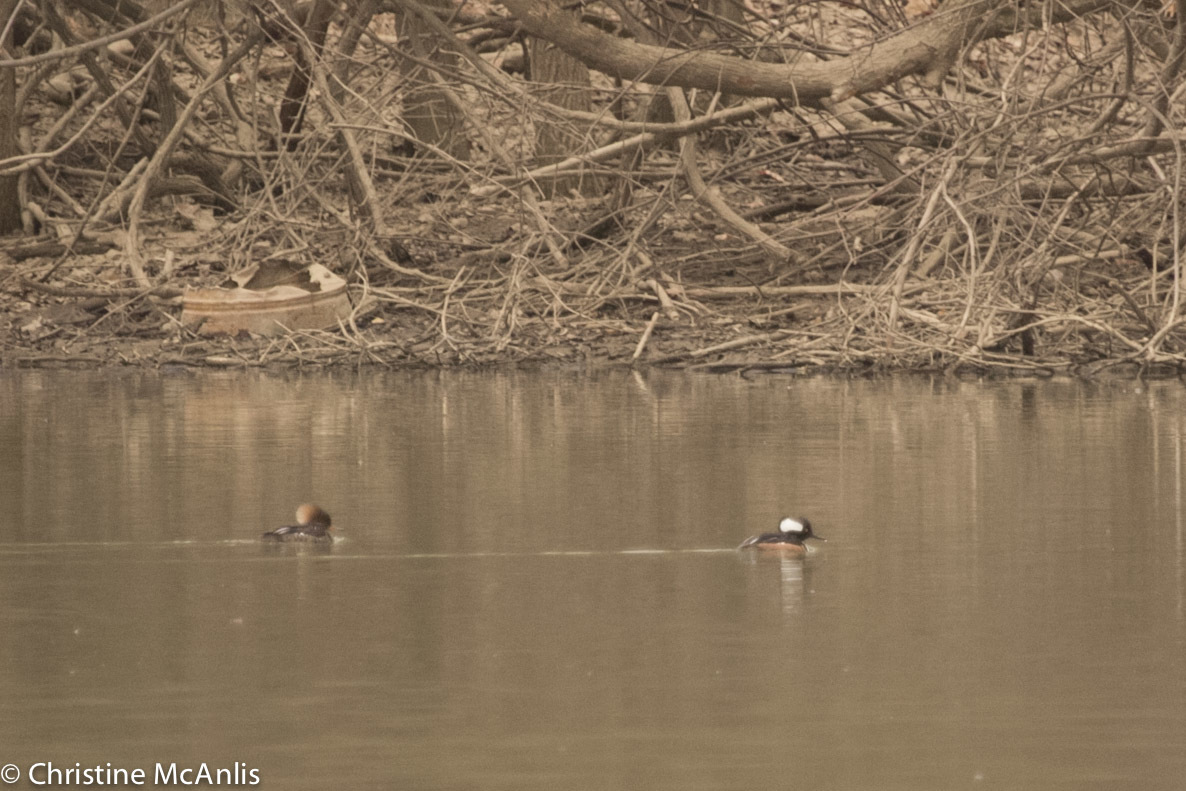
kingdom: Animalia
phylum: Chordata
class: Aves
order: Anseriformes
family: Anatidae
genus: Lophodytes
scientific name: Lophodytes cucullatus
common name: Hooded merganser
